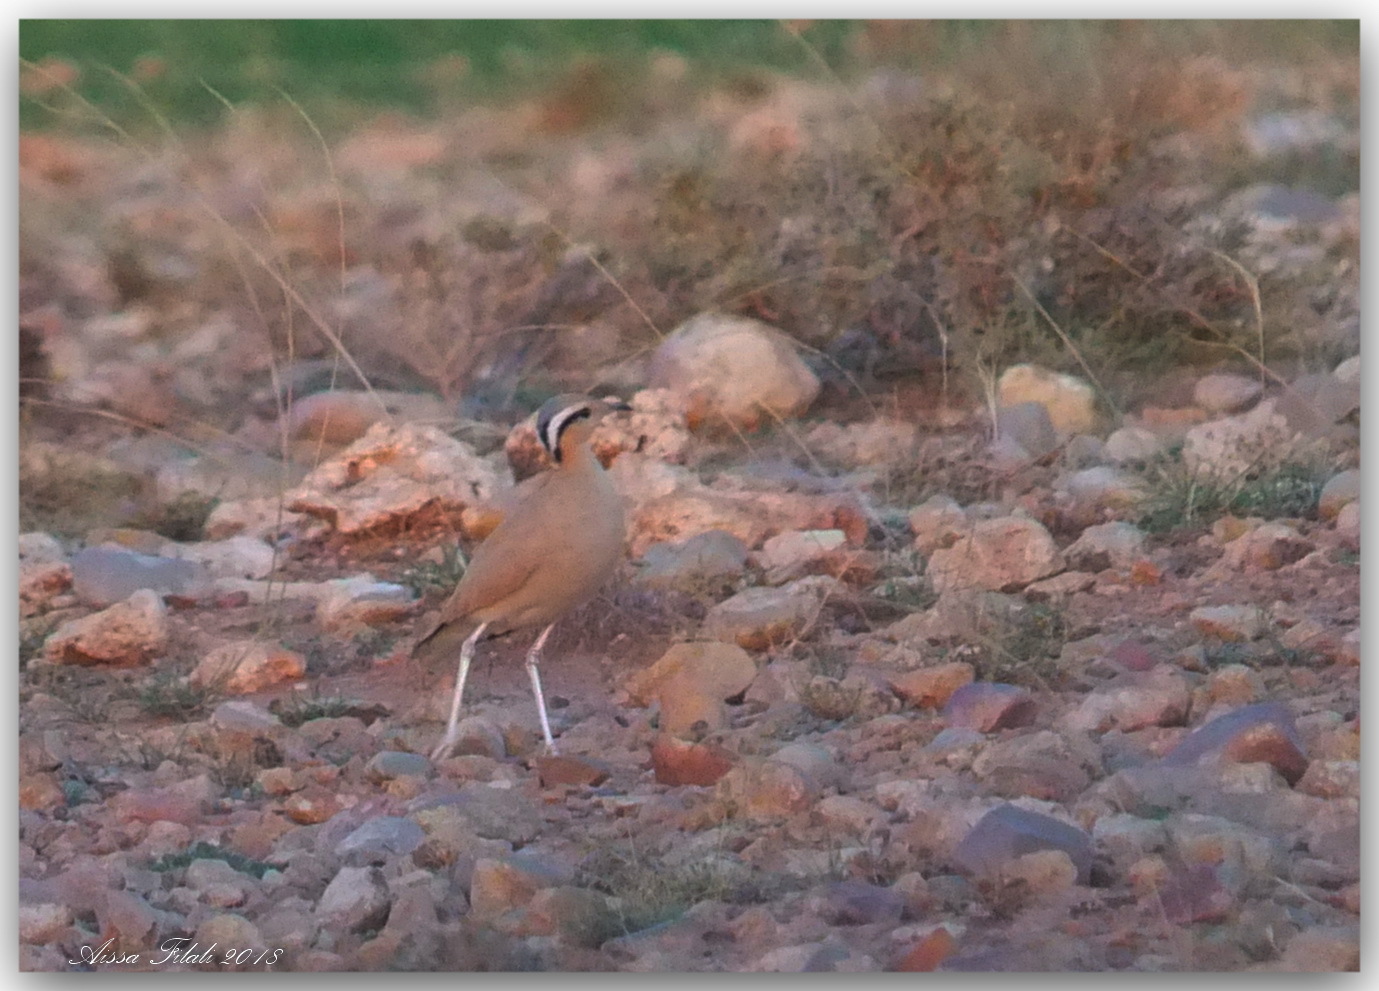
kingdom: Animalia
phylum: Chordata
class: Aves
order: Charadriiformes
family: Glareolidae
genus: Cursorius
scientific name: Cursorius cursor
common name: Cream-colored courser
